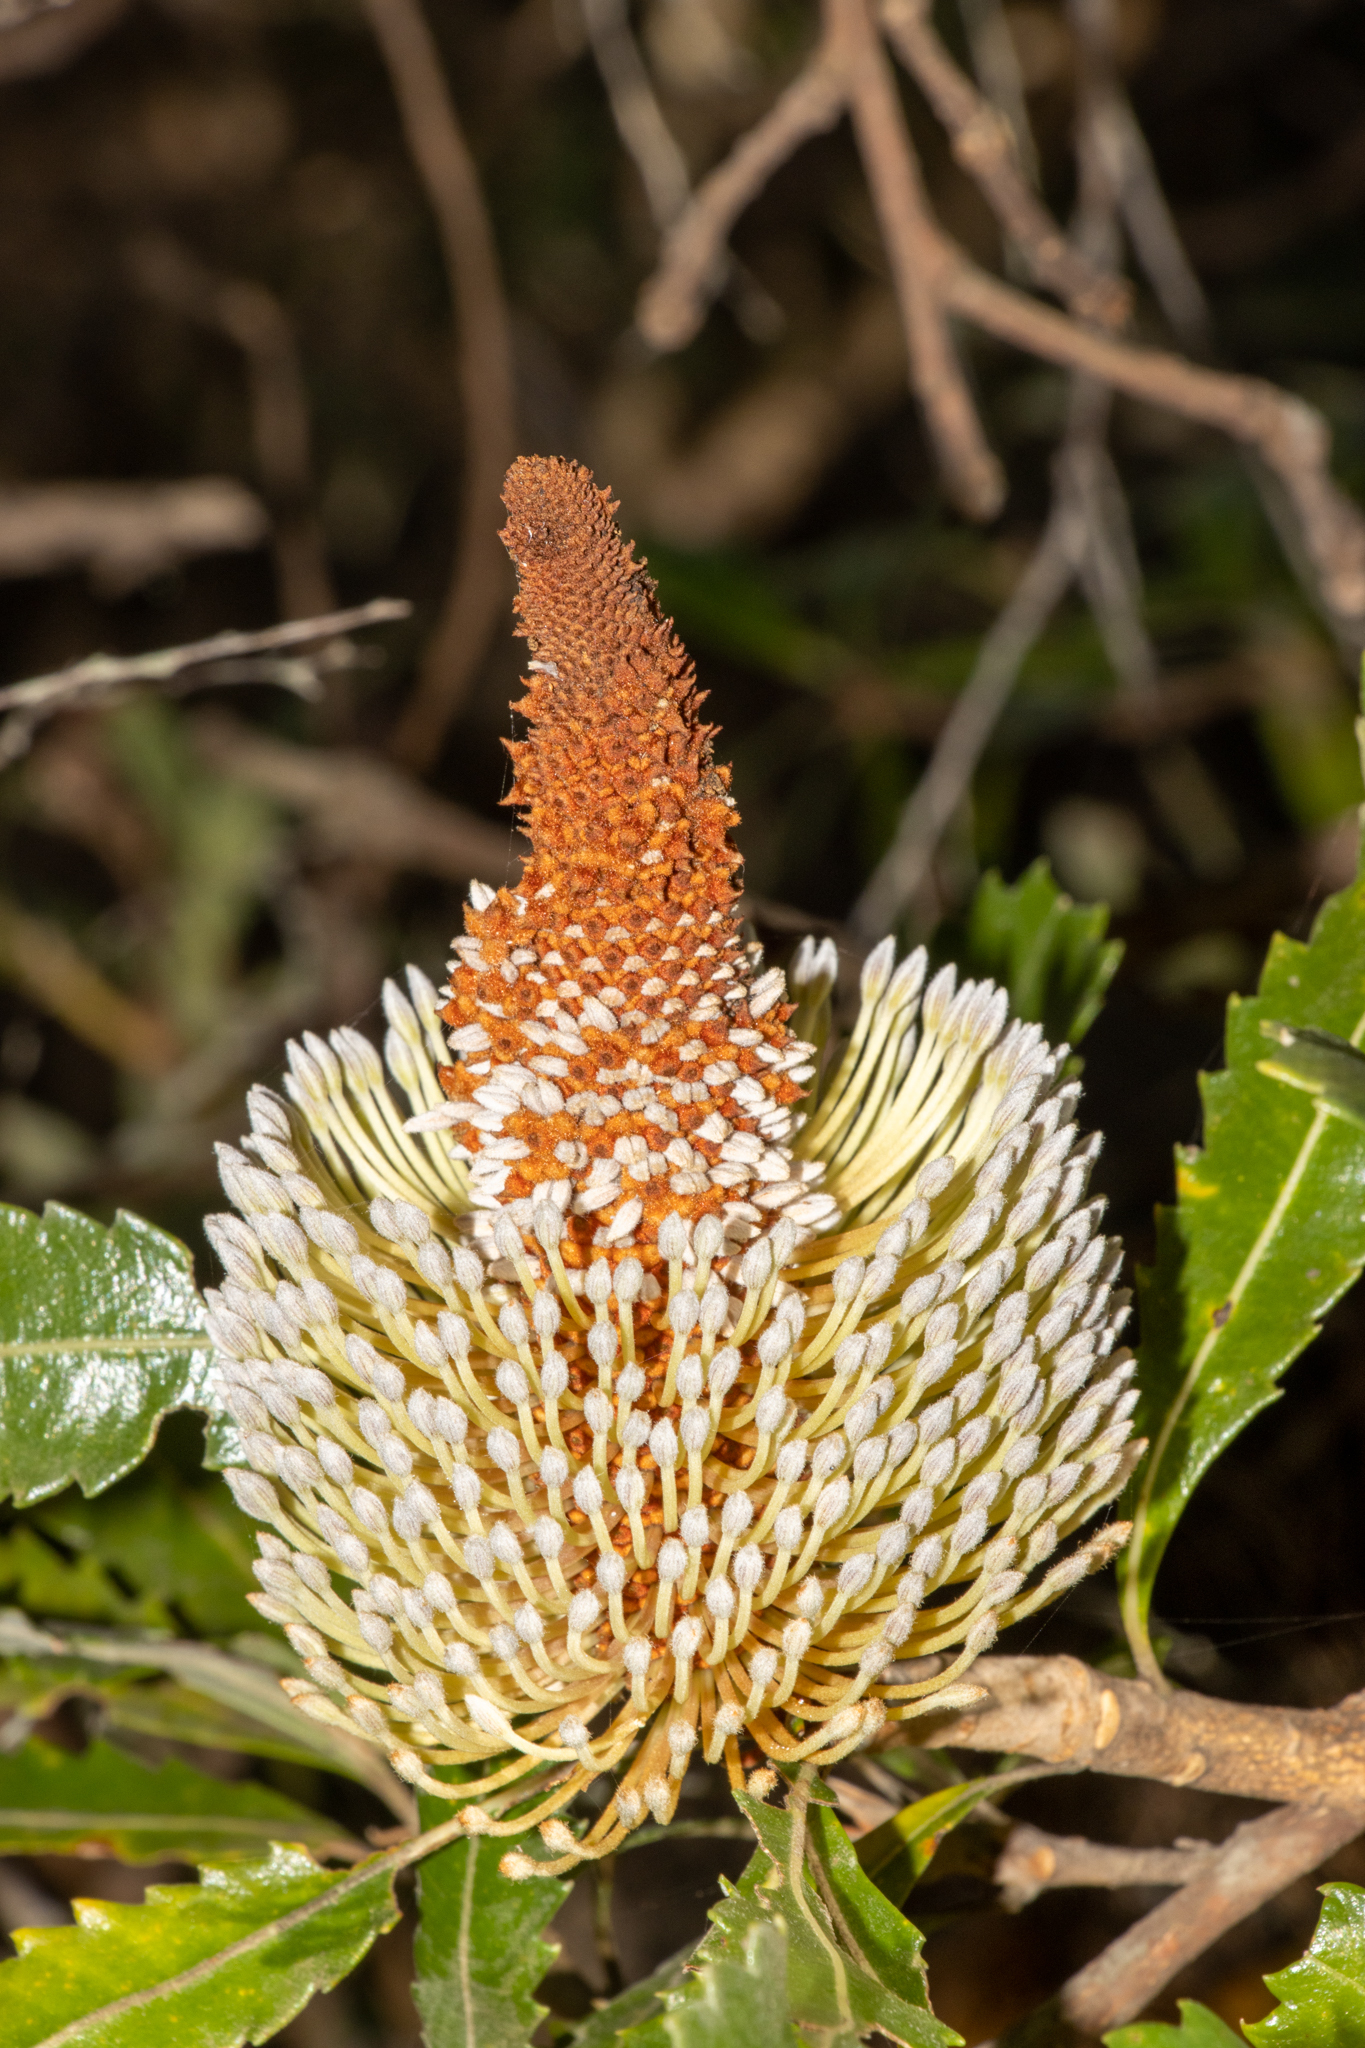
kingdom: Plantae
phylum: Tracheophyta
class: Magnoliopsida
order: Proteales
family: Proteaceae
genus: Banksia
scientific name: Banksia serrata
